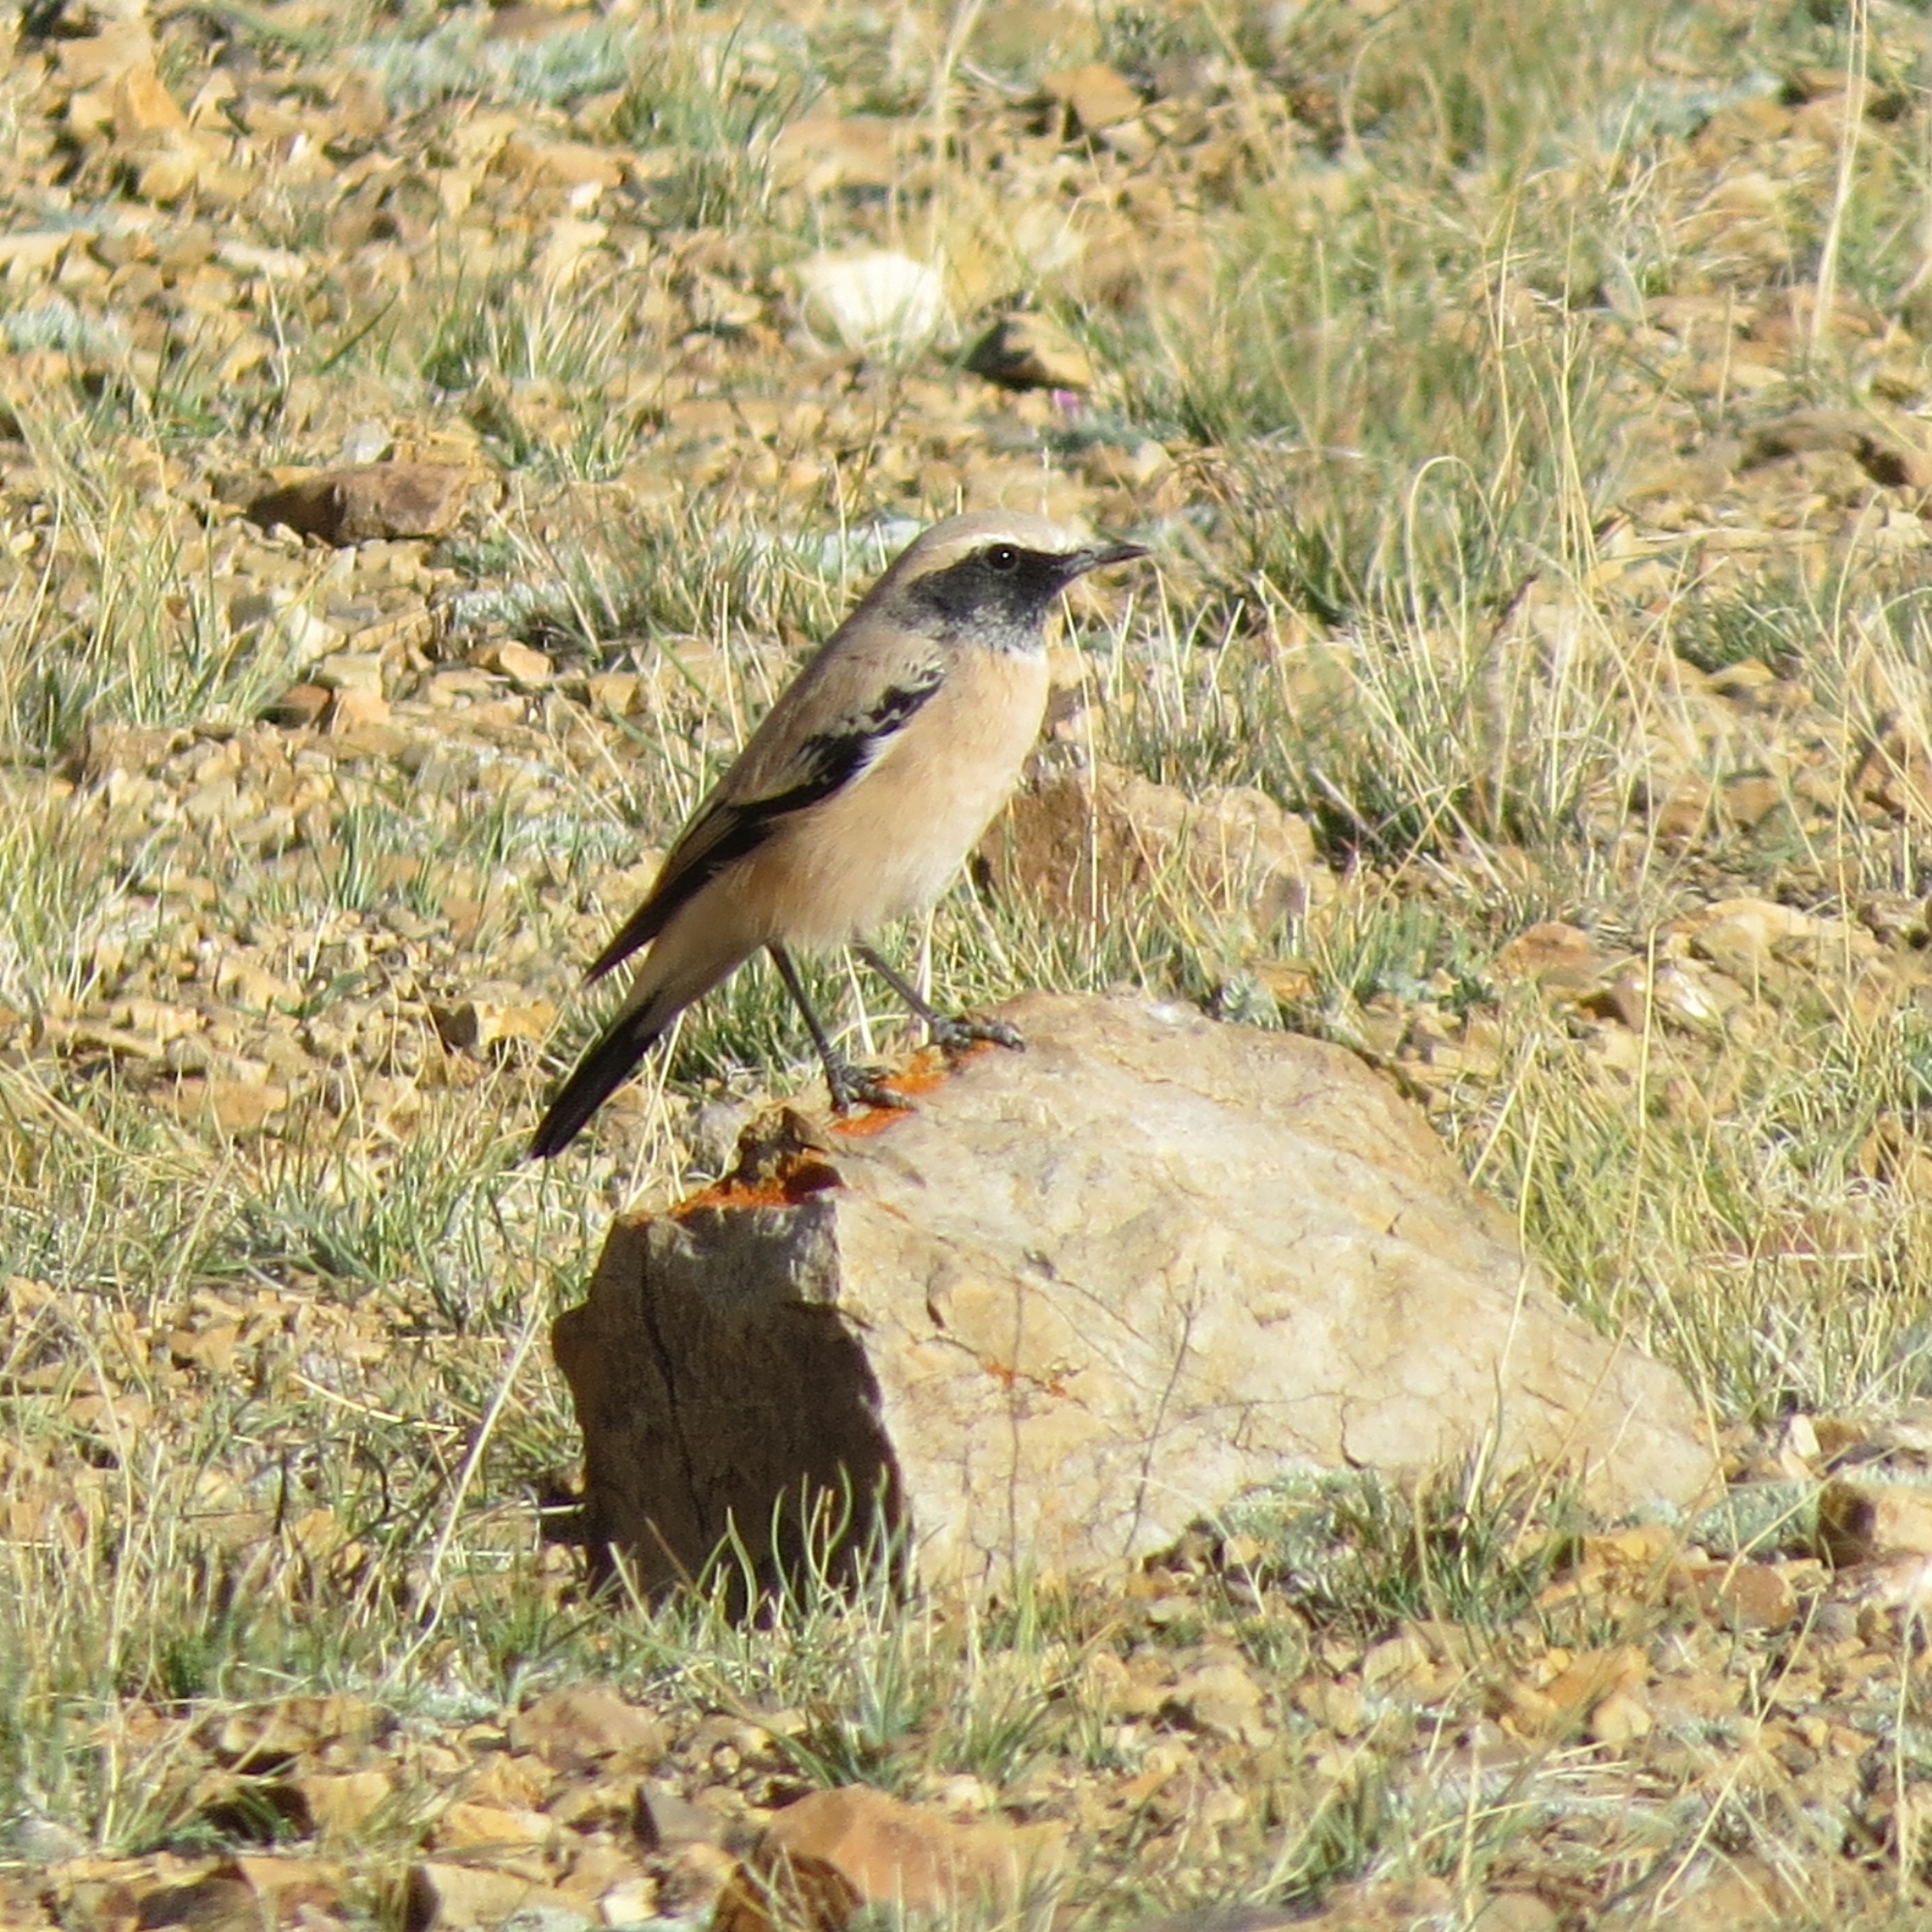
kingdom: Animalia
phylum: Chordata
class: Aves
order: Passeriformes
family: Muscicapidae
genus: Oenanthe
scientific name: Oenanthe deserti
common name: Desert wheatear
